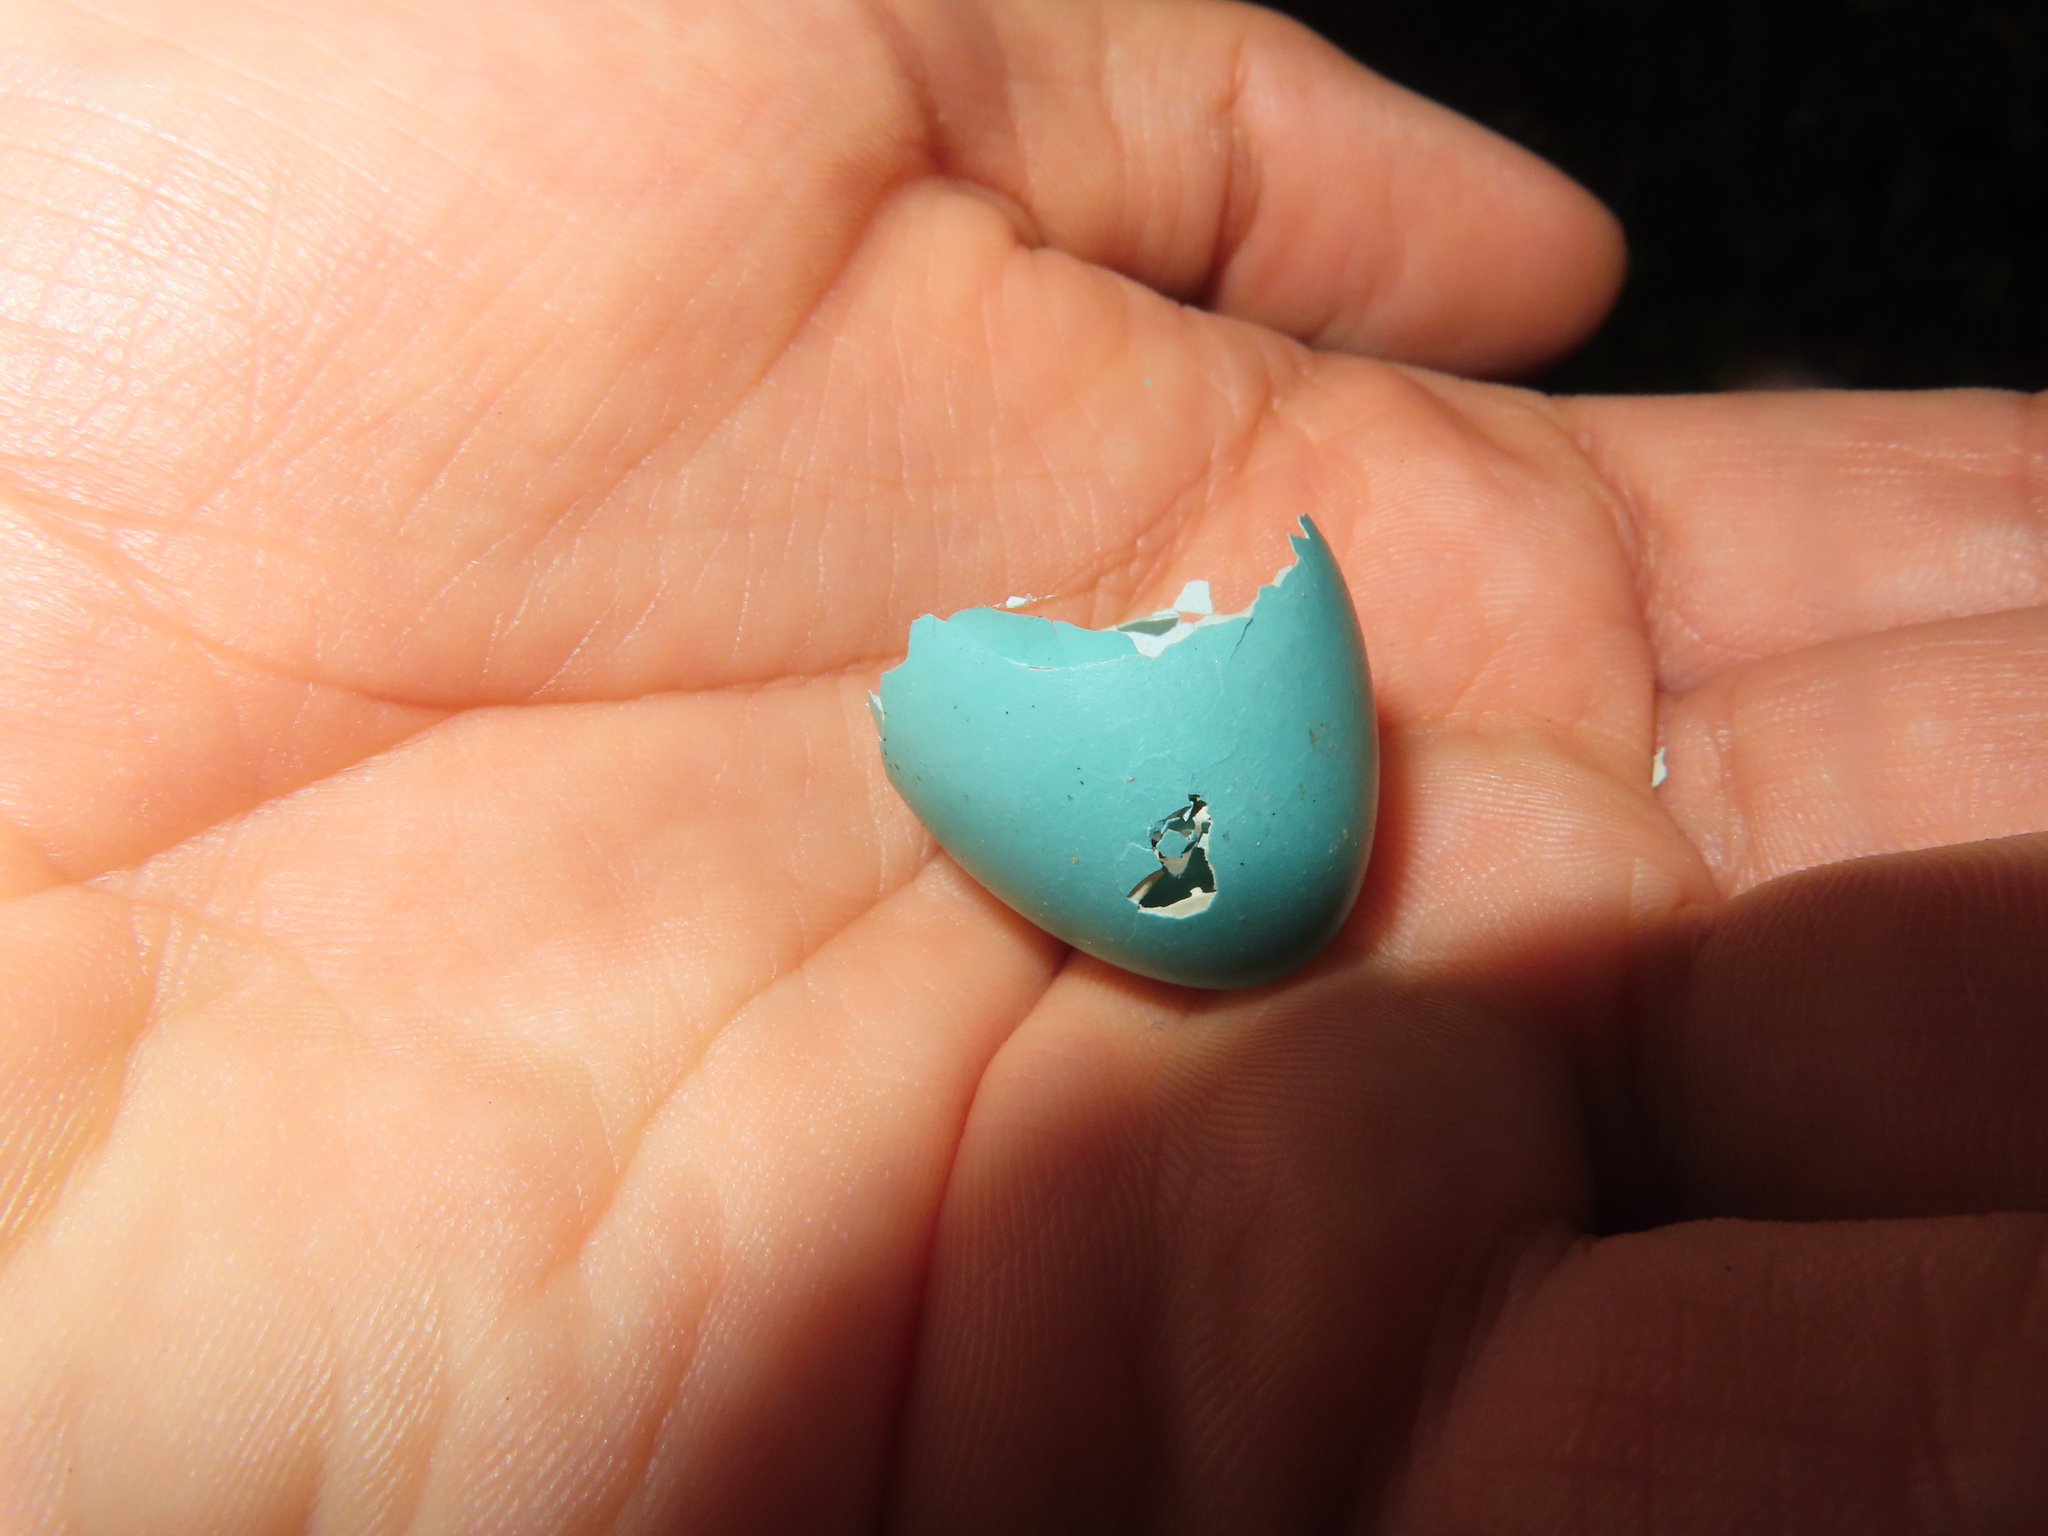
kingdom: Animalia
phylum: Chordata
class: Aves
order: Passeriformes
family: Turdidae
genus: Turdus
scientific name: Turdus migratorius
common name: American robin
